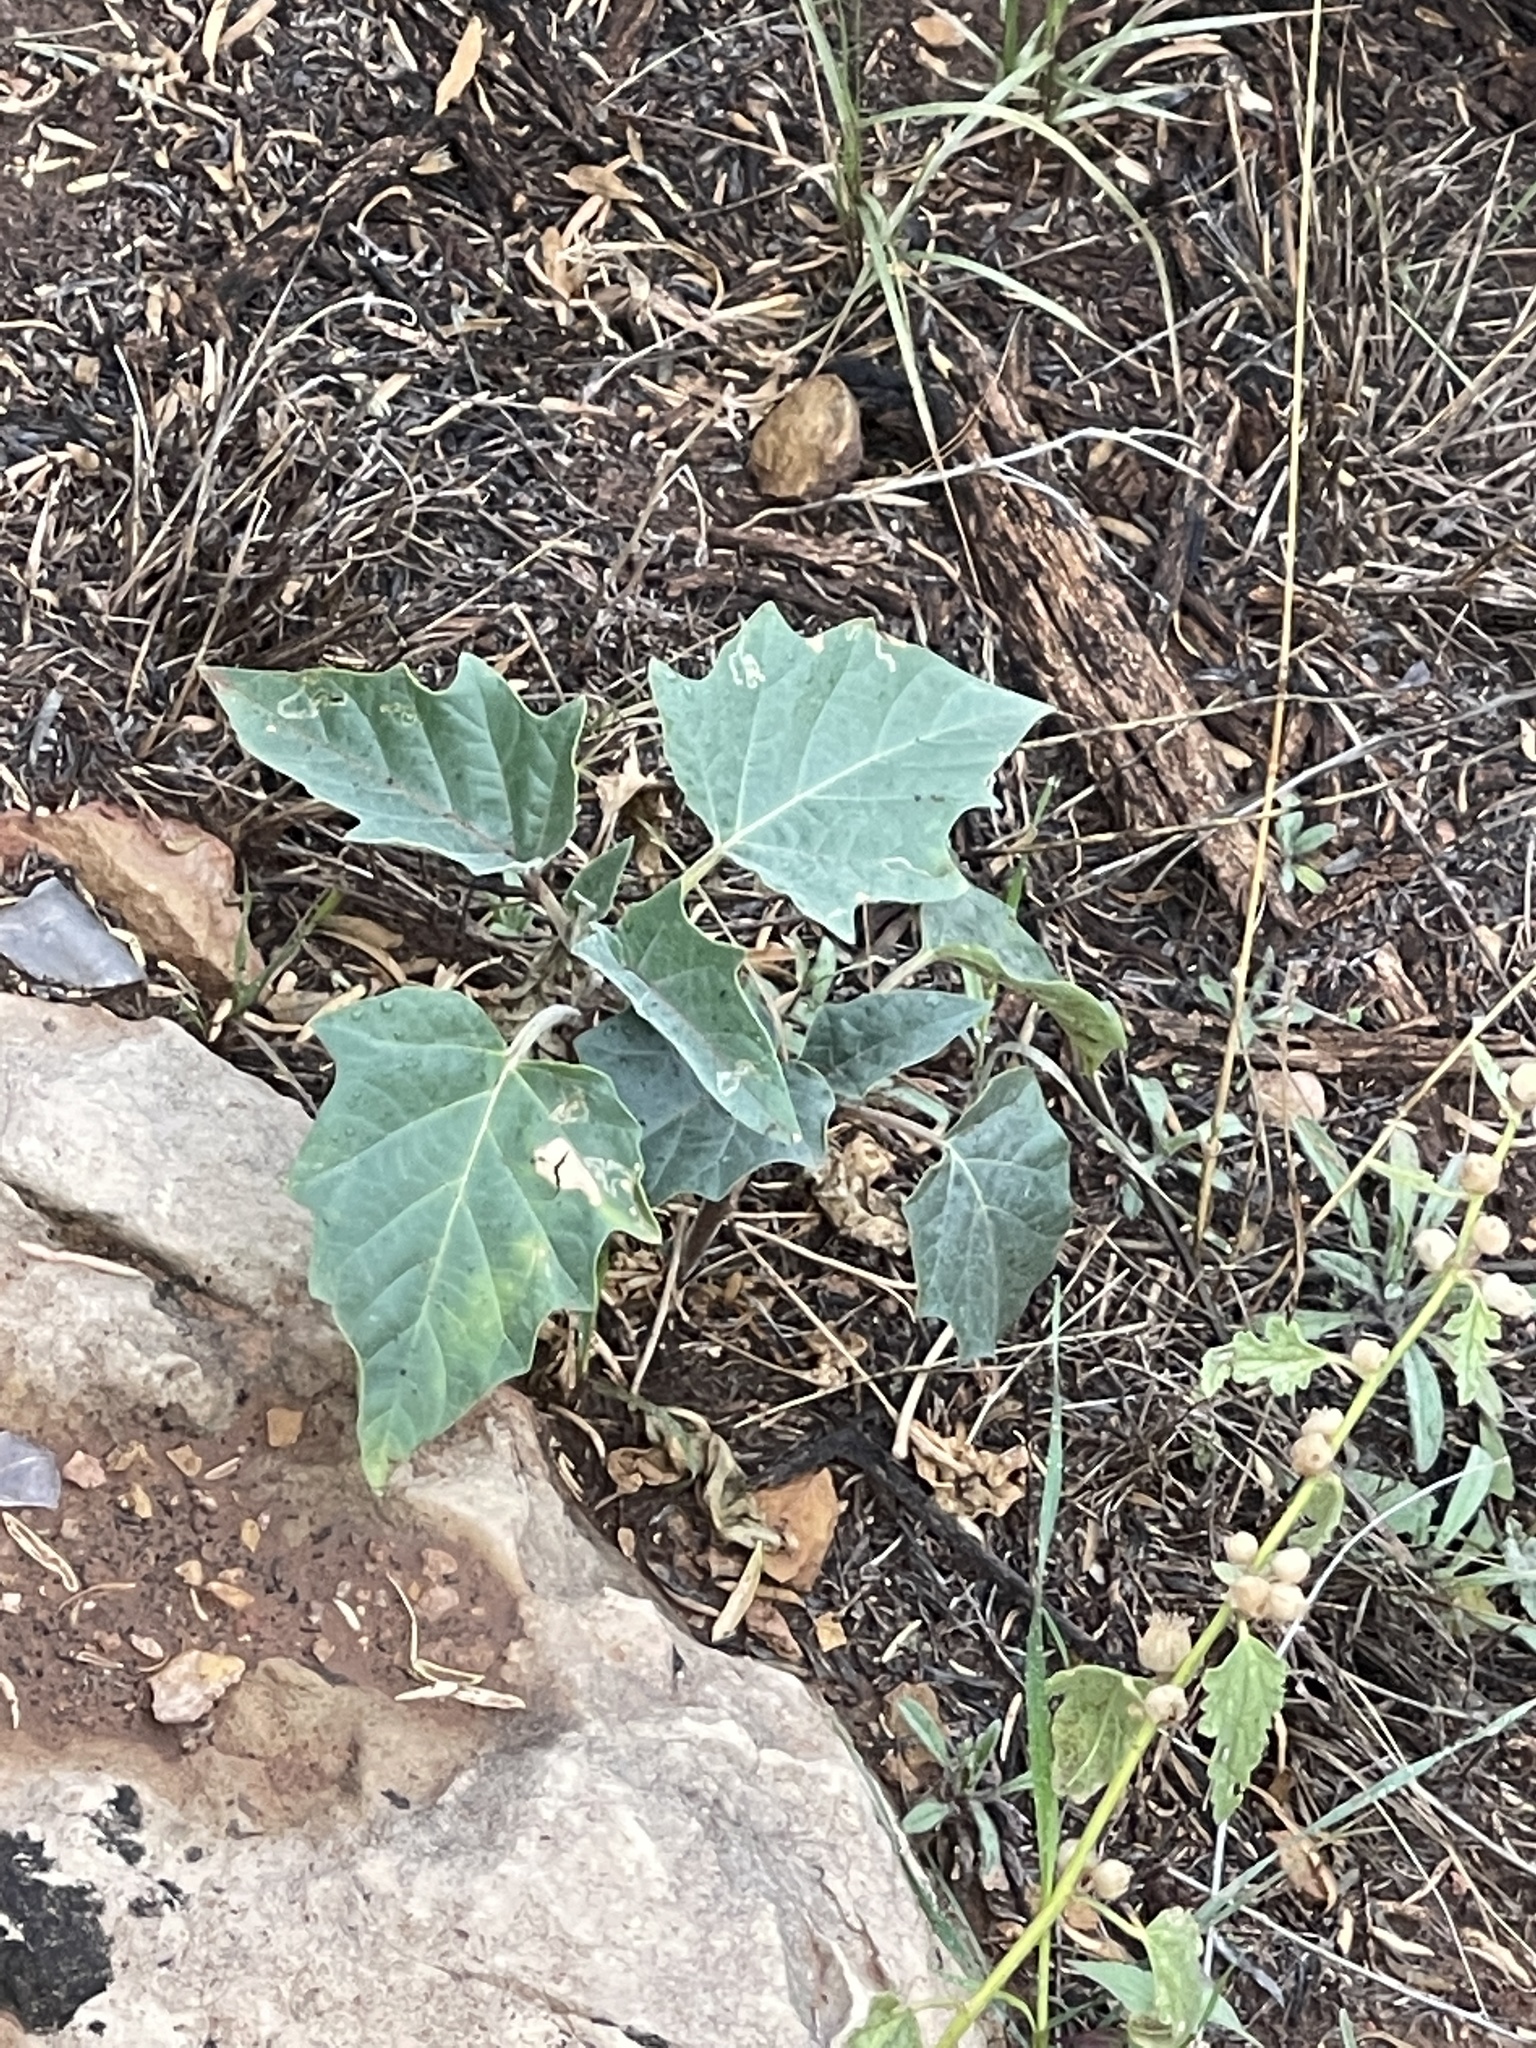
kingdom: Plantae
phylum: Tracheophyta
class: Magnoliopsida
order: Solanales
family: Solanaceae
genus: Datura
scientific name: Datura wrightii
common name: Sacred thorn-apple
